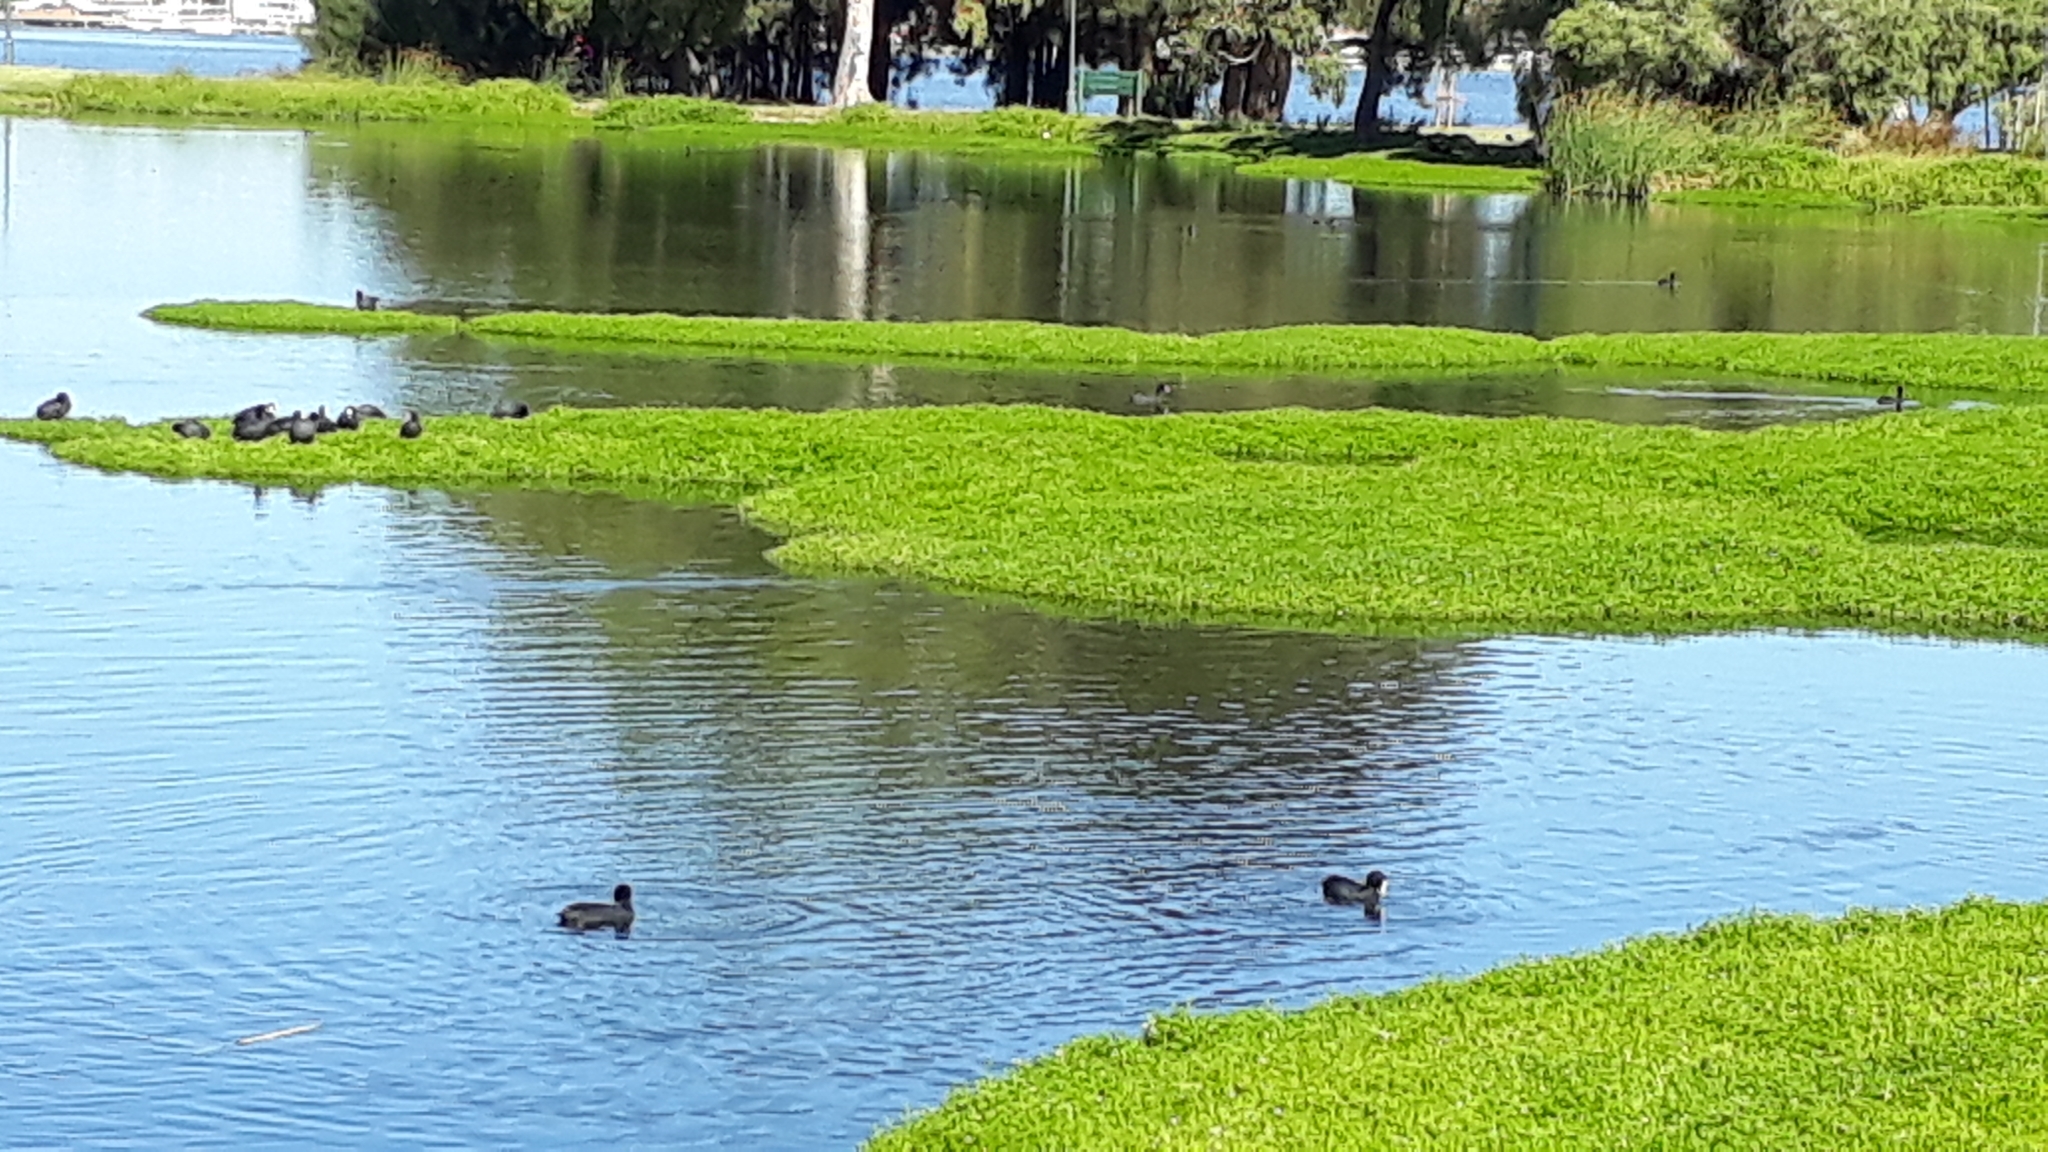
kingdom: Animalia
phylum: Chordata
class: Aves
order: Gruiformes
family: Rallidae
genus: Fulica
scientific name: Fulica atra
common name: Eurasian coot
